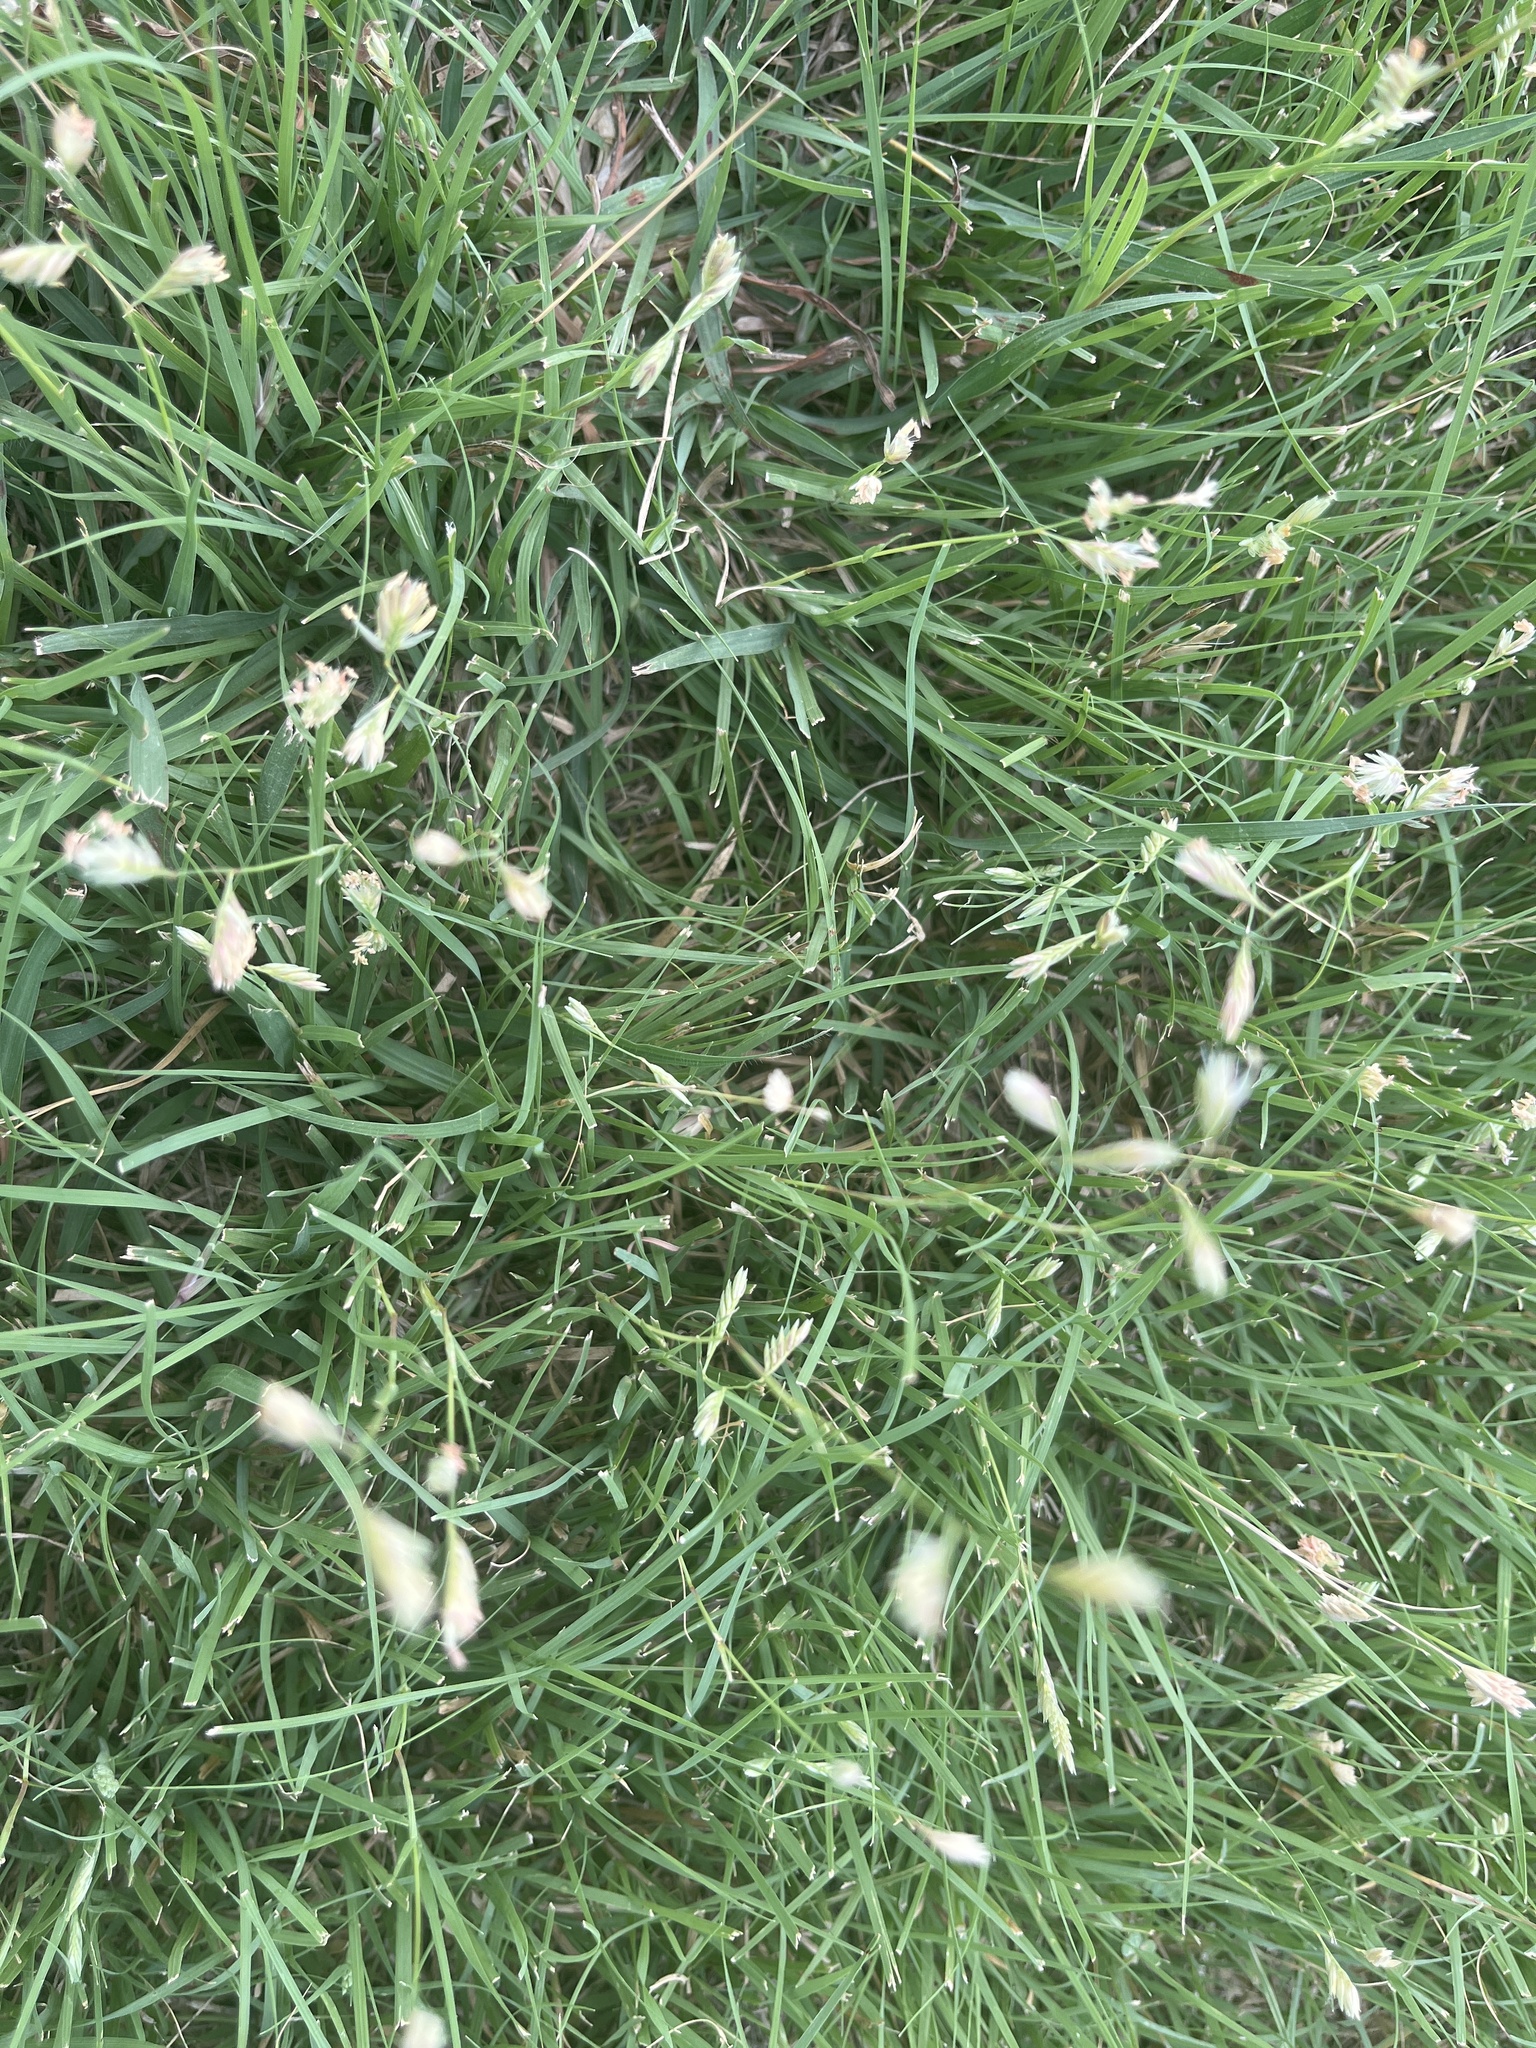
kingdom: Plantae
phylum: Tracheophyta
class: Liliopsida
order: Poales
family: Poaceae
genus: Bouteloua
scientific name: Bouteloua dactyloides
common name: Buffalo grass
